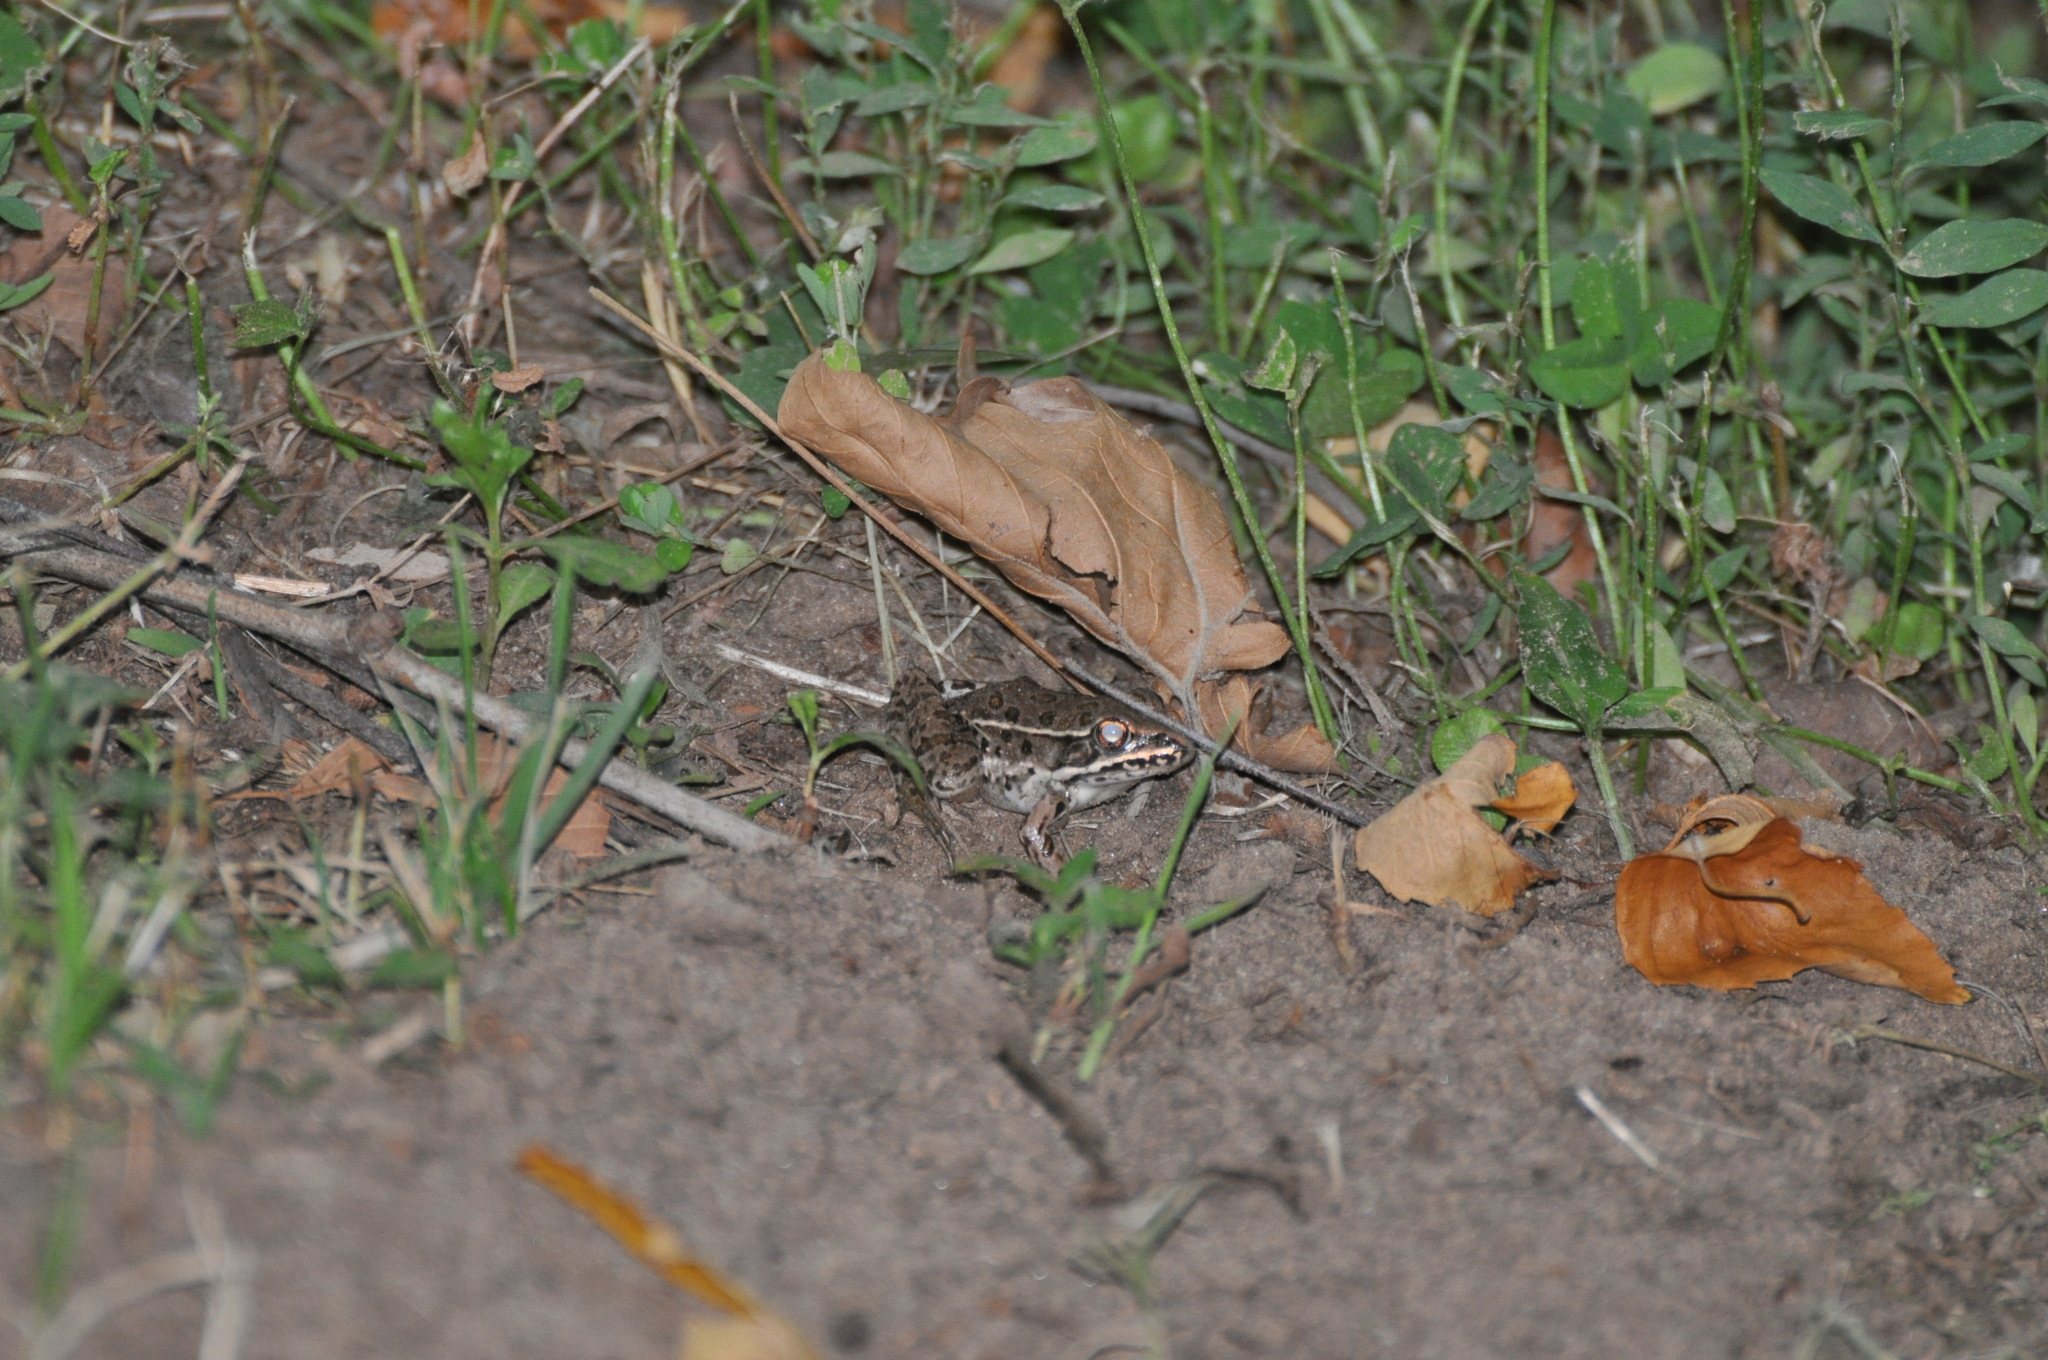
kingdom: Animalia
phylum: Chordata
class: Amphibia
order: Anura
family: Ranidae
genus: Lithobates
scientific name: Lithobates blairi
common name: Plains leopard frog
